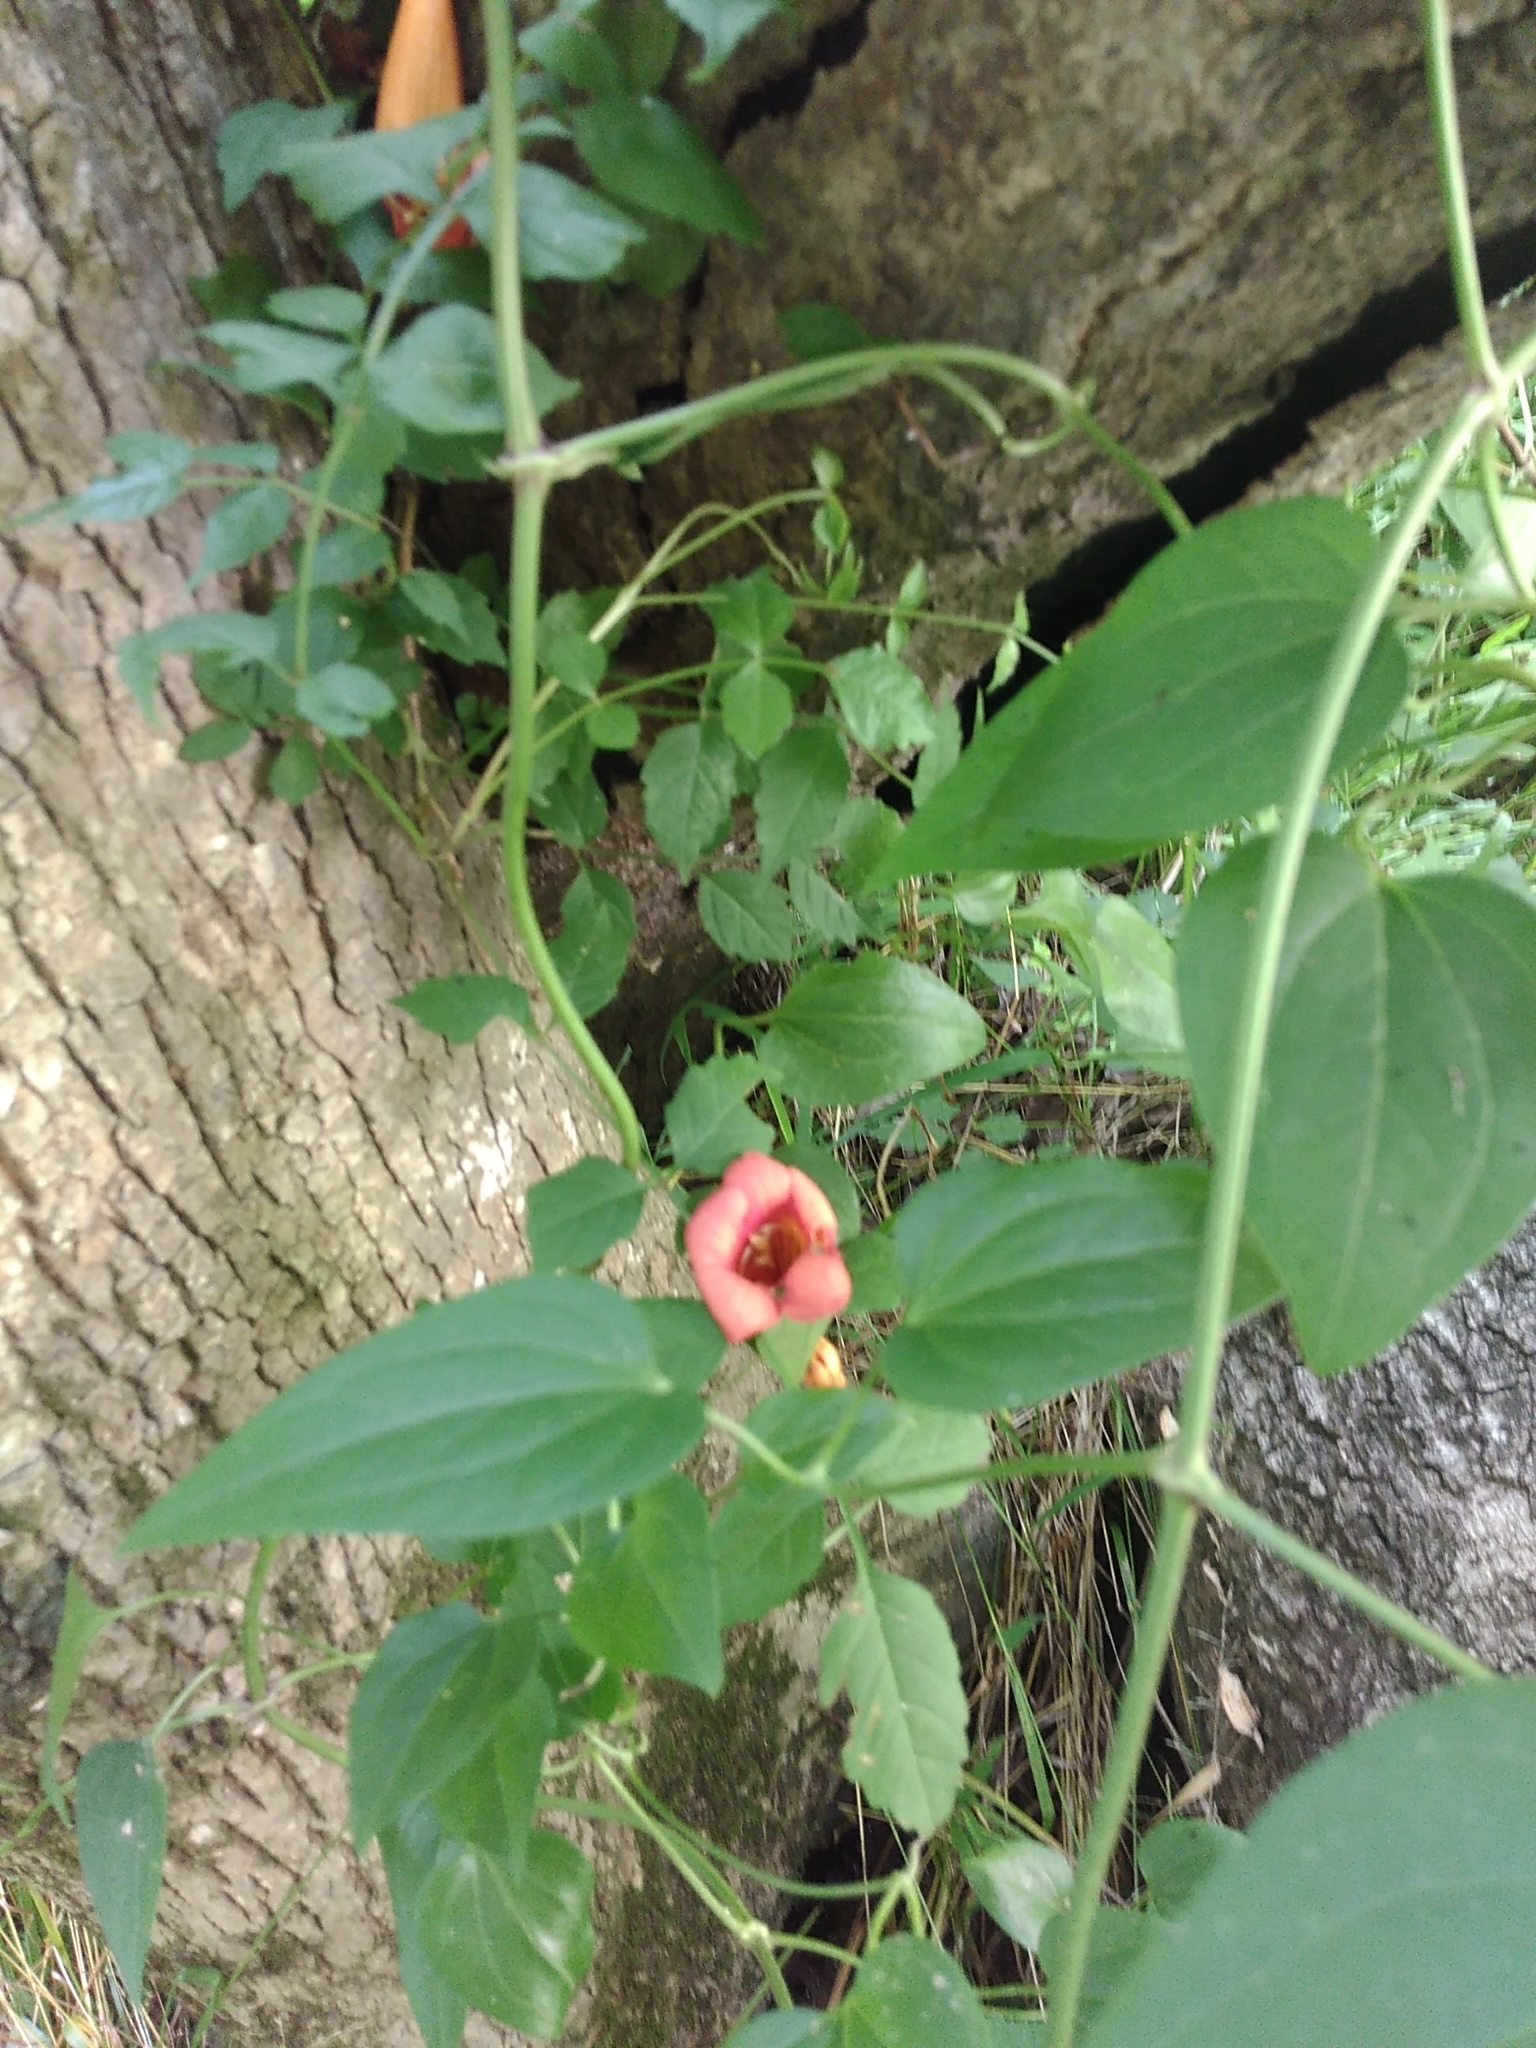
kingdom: Plantae
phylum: Tracheophyta
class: Magnoliopsida
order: Lamiales
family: Bignoniaceae
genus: Campsis
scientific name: Campsis radicans
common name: Trumpet-creeper
